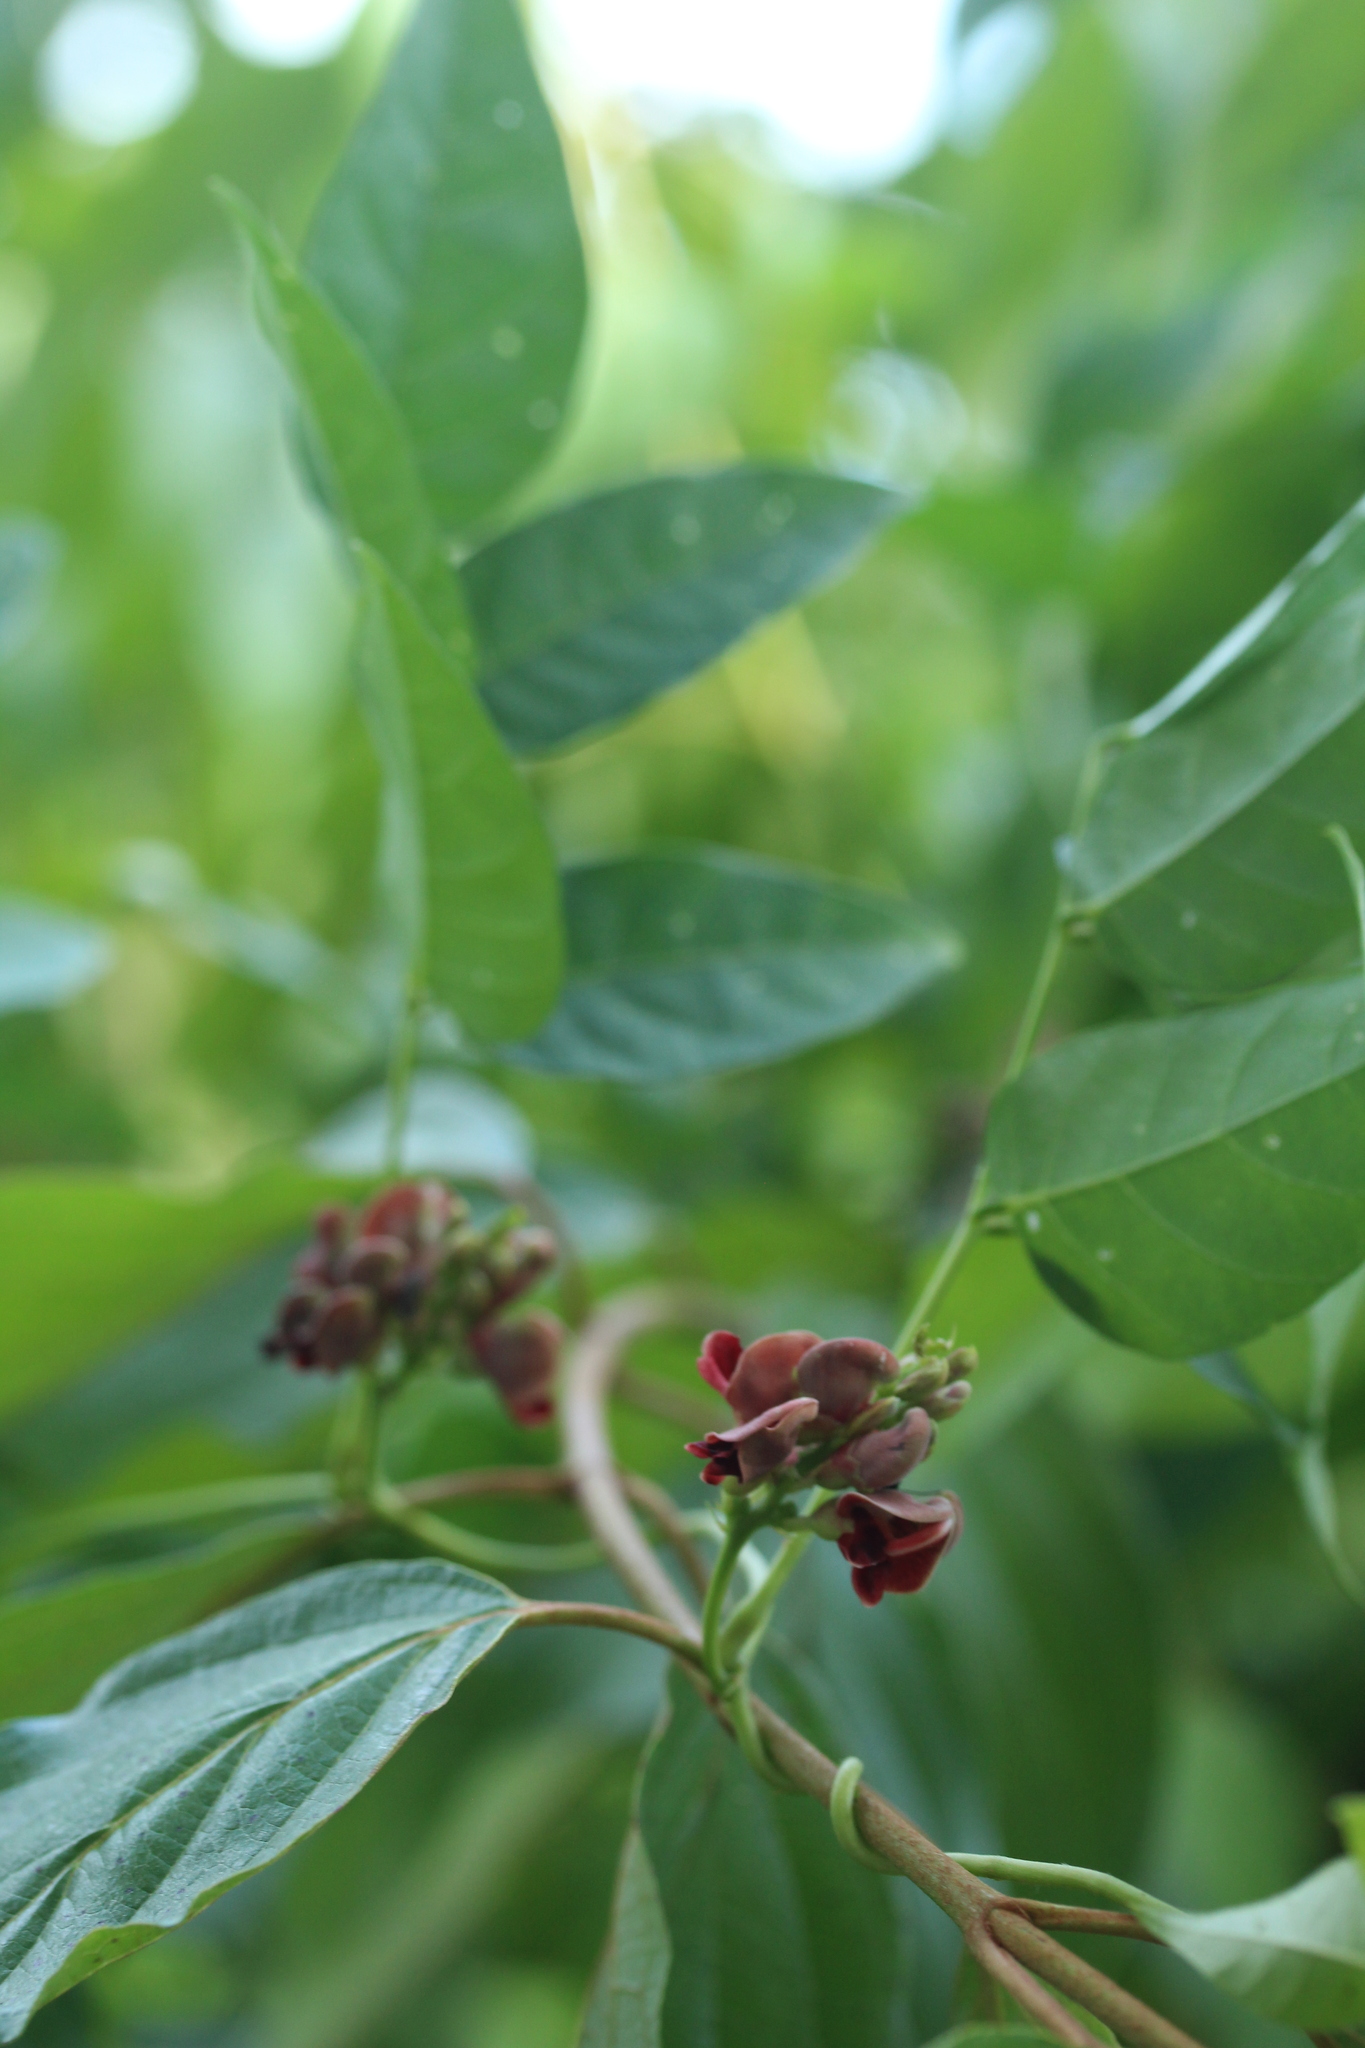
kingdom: Plantae
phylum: Tracheophyta
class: Magnoliopsida
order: Fabales
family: Fabaceae
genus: Apios
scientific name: Apios americana
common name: American potato-bean
